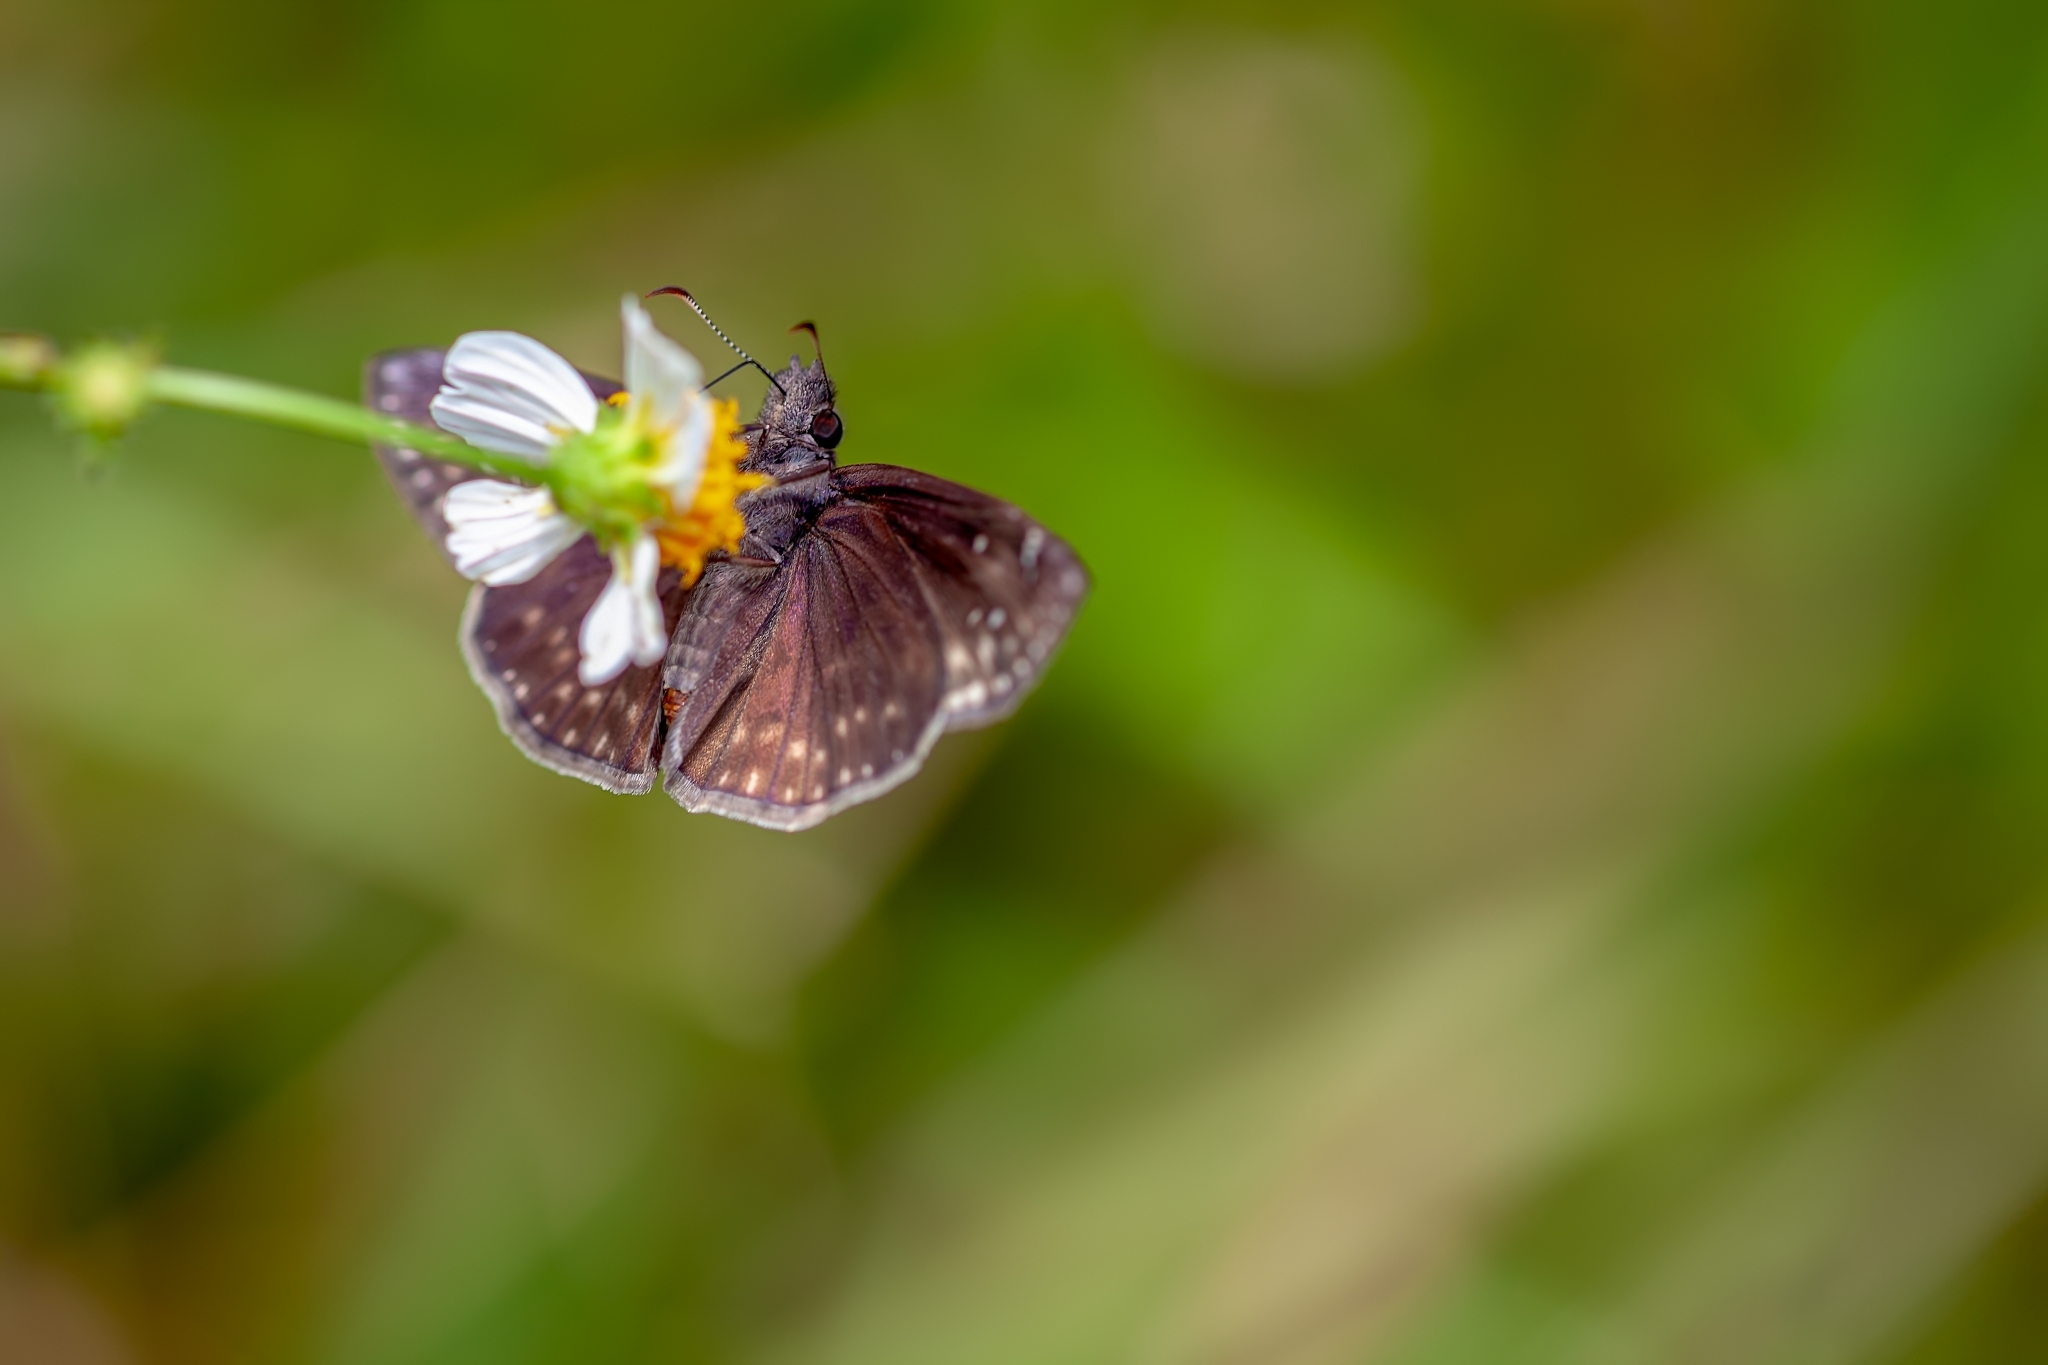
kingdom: Animalia
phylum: Arthropoda
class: Insecta
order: Lepidoptera
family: Hesperiidae
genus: Erynnis
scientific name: Erynnis horatius
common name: Horace's duskywing
